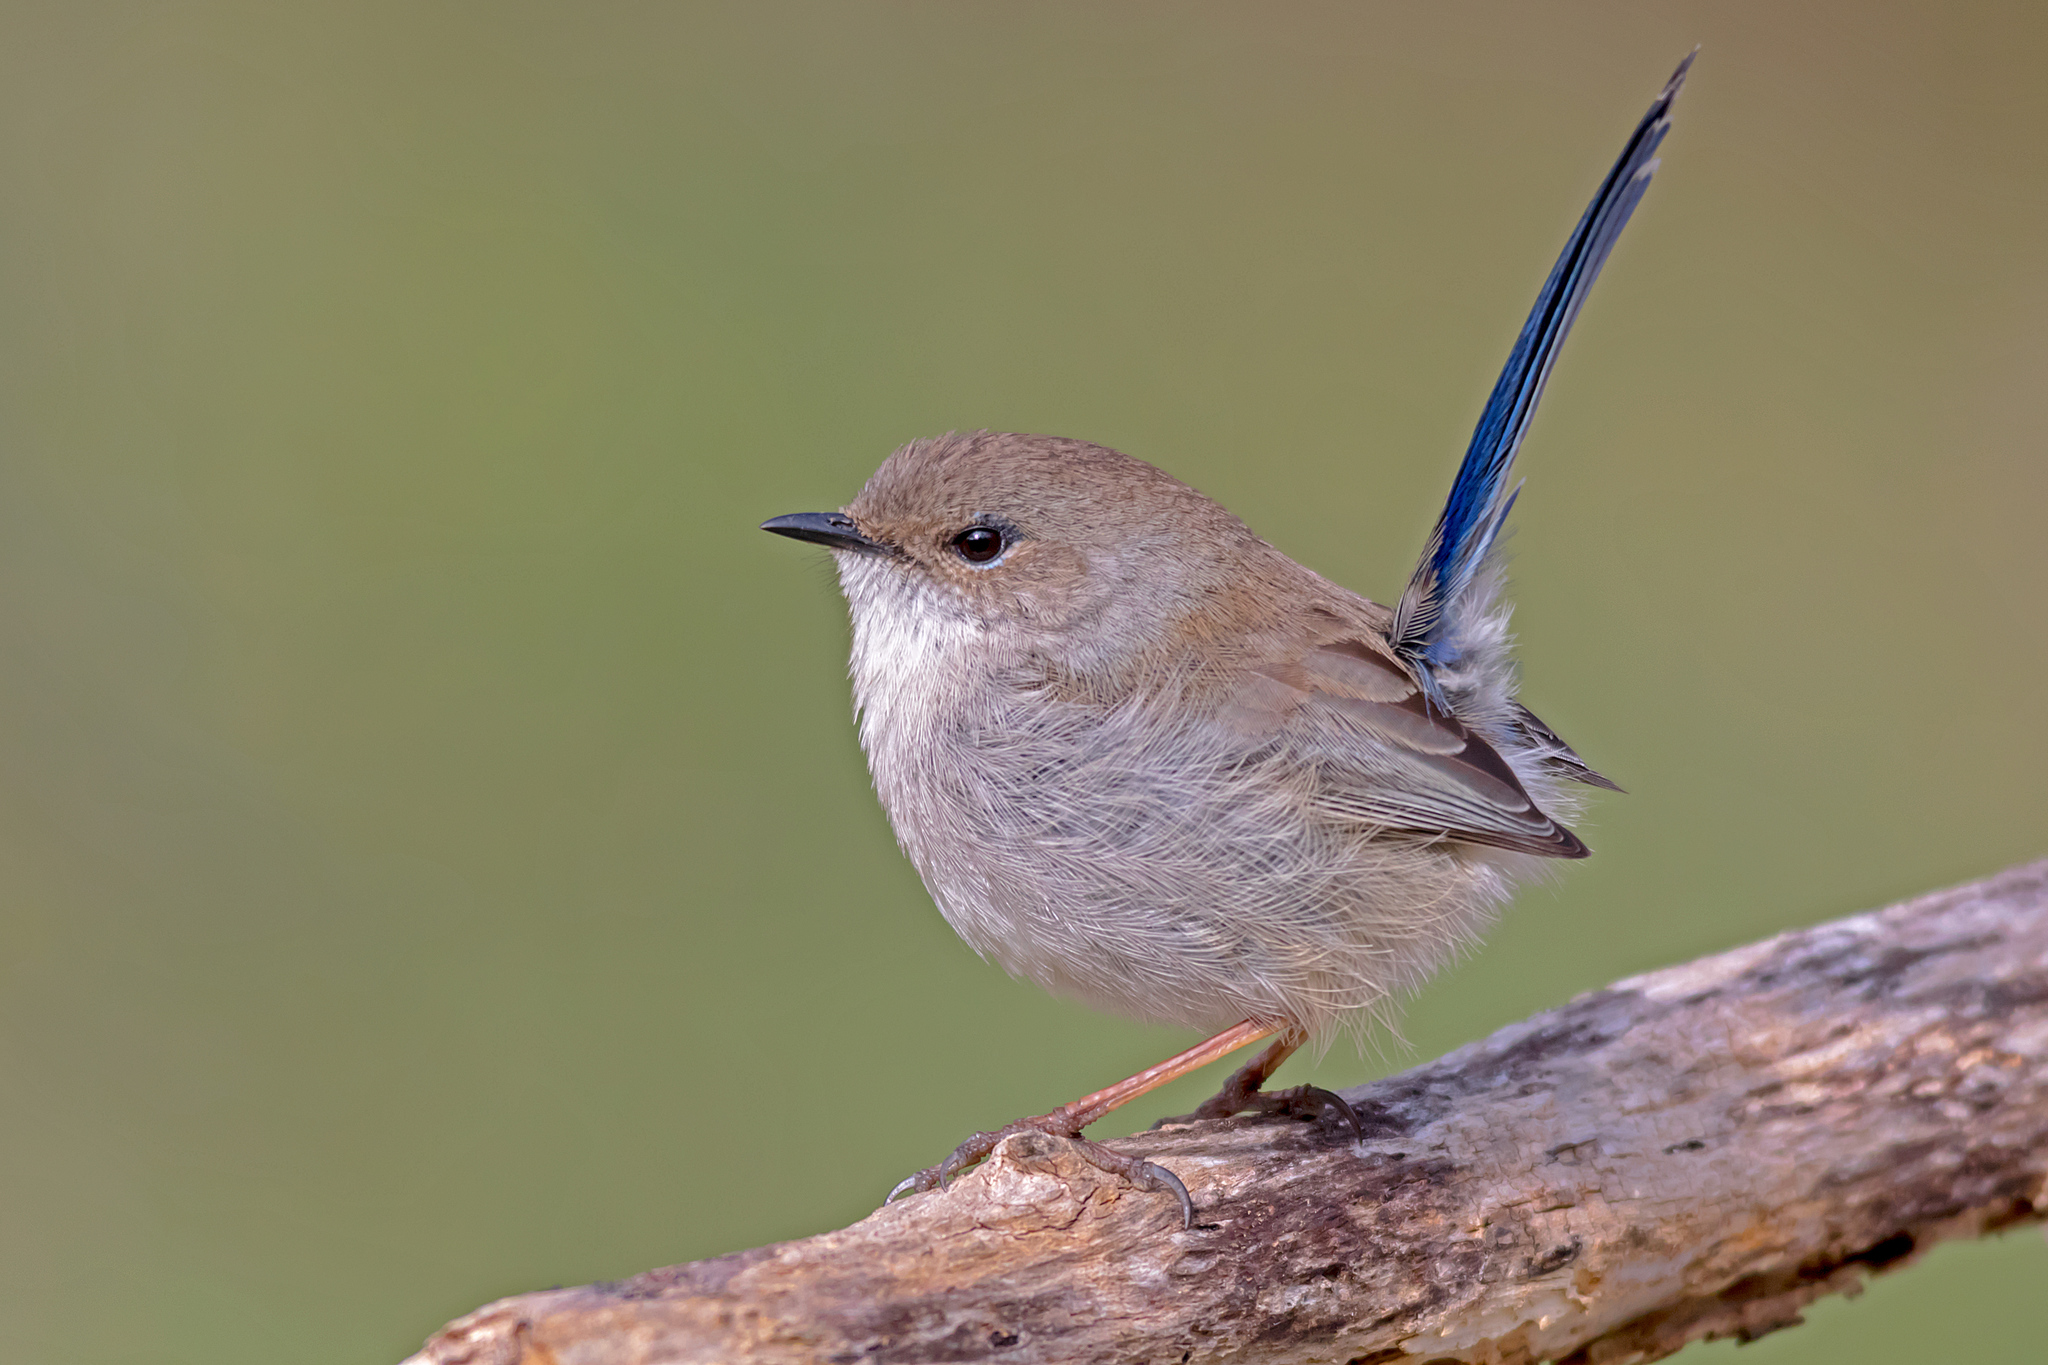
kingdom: Animalia
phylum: Chordata
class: Aves
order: Passeriformes
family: Maluridae
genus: Malurus
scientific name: Malurus cyaneus
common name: Superb fairywren
